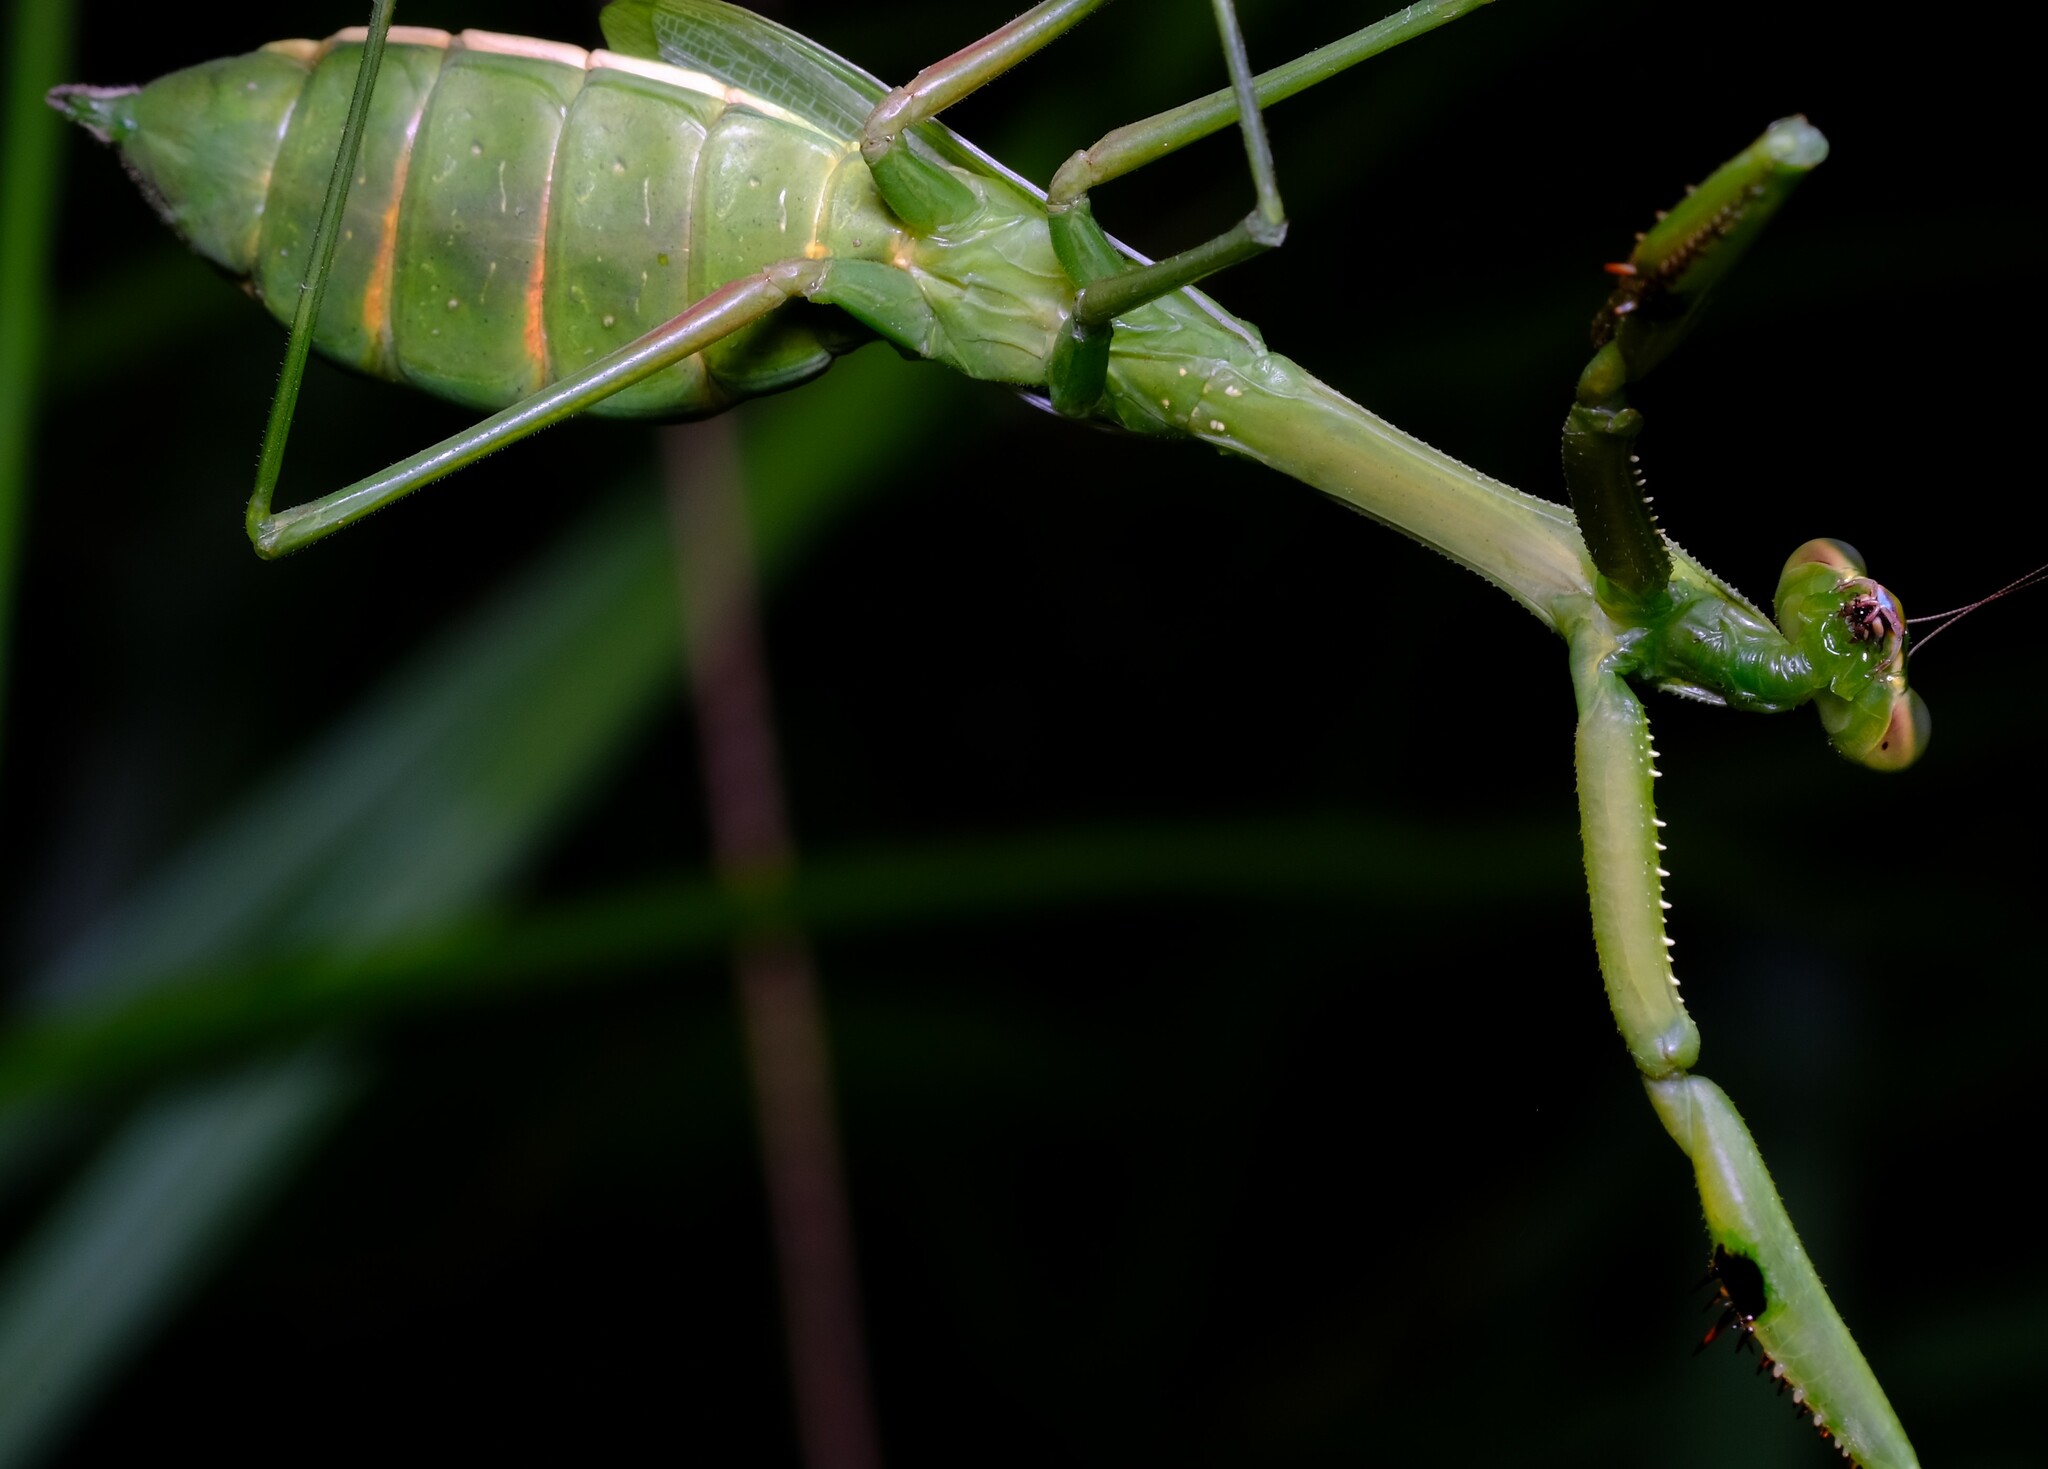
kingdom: Animalia
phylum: Arthropoda
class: Insecta
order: Mantodea
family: Mantidae
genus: Pseudomantis
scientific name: Pseudomantis albofimbriata
